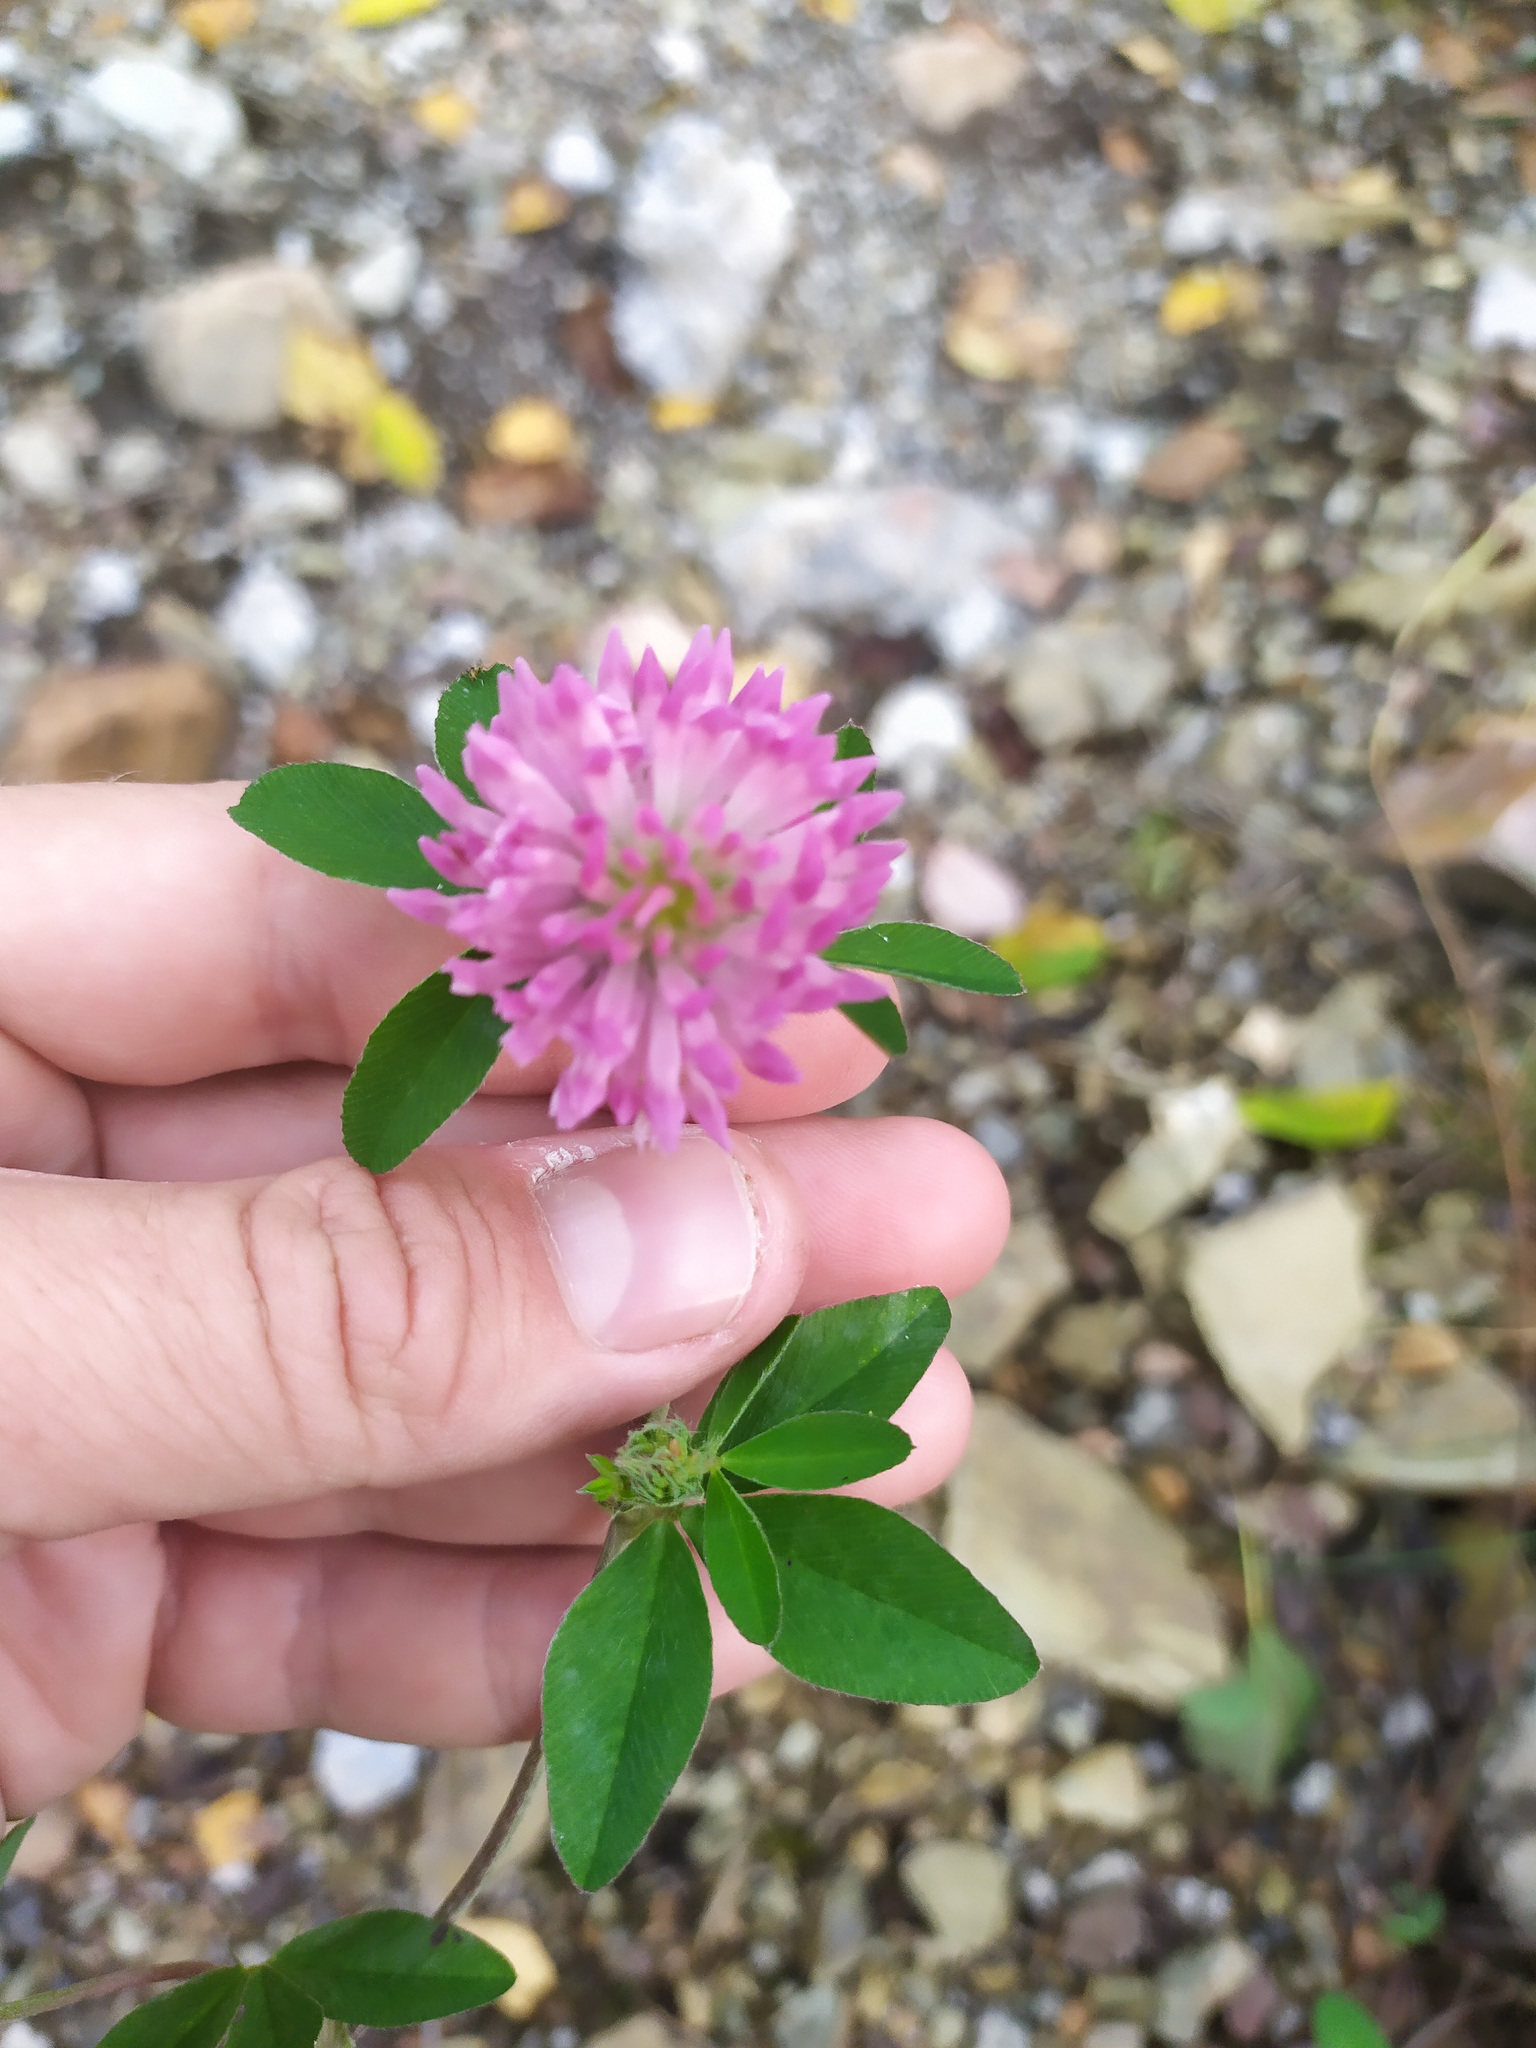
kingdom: Plantae
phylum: Tracheophyta
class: Magnoliopsida
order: Fabales
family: Fabaceae
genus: Trifolium
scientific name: Trifolium pratense
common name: Red clover
